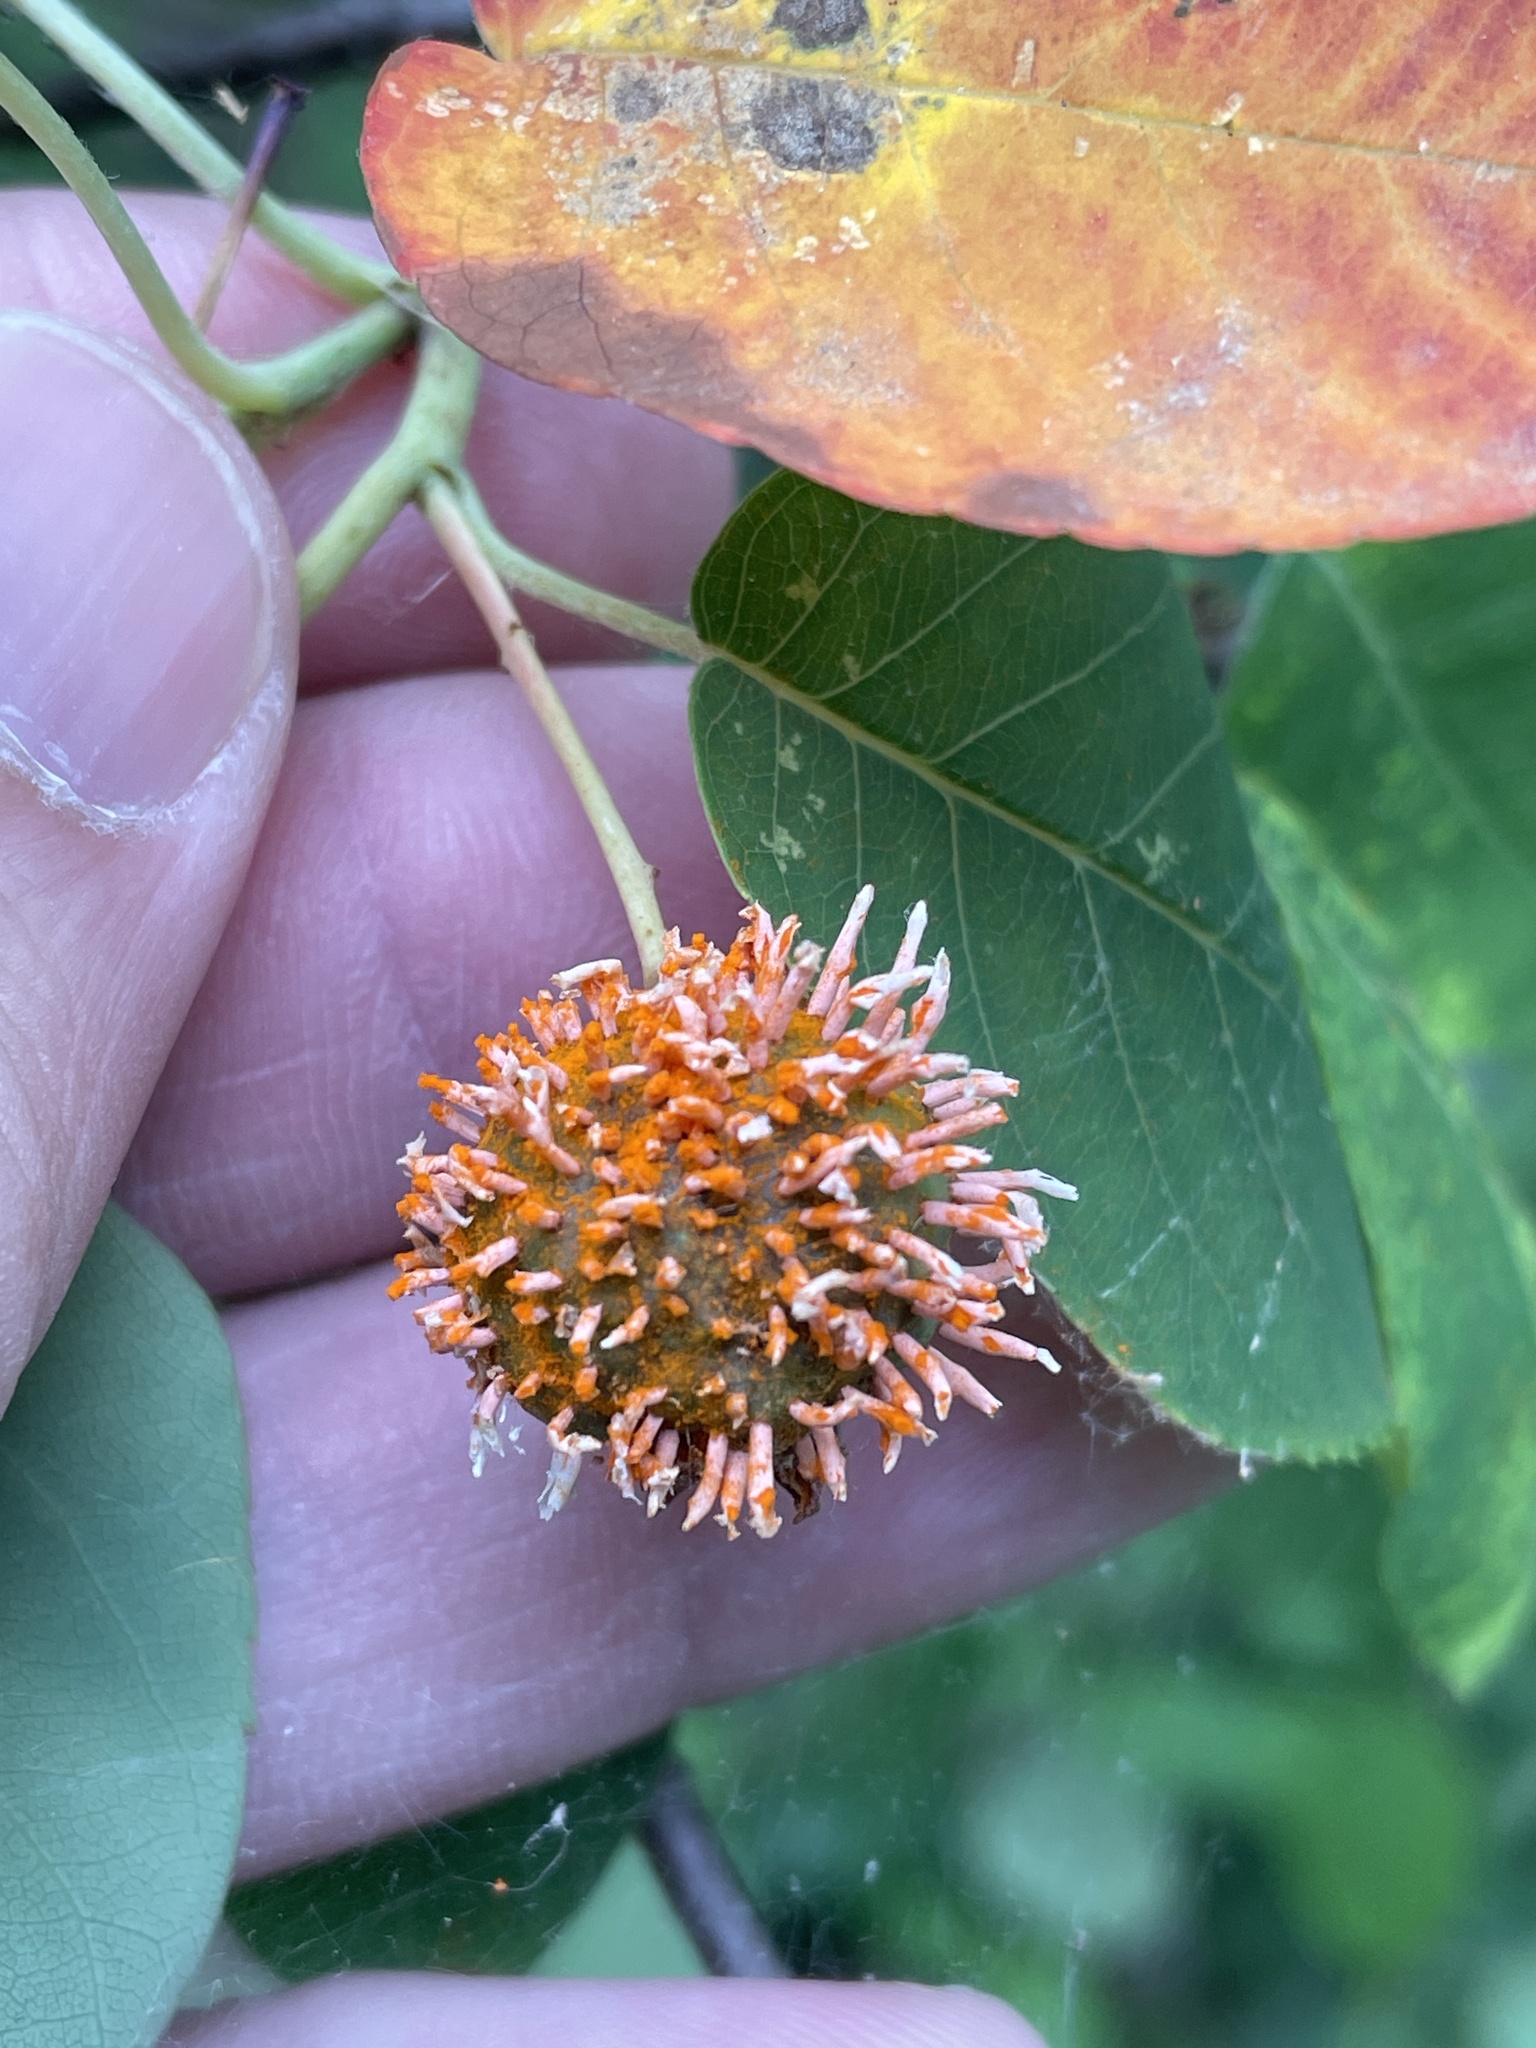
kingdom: Fungi
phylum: Basidiomycota
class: Pucciniomycetes
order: Pucciniales
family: Gymnosporangiaceae
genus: Gymnosporangium
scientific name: Gymnosporangium clavipes
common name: Quince rust
